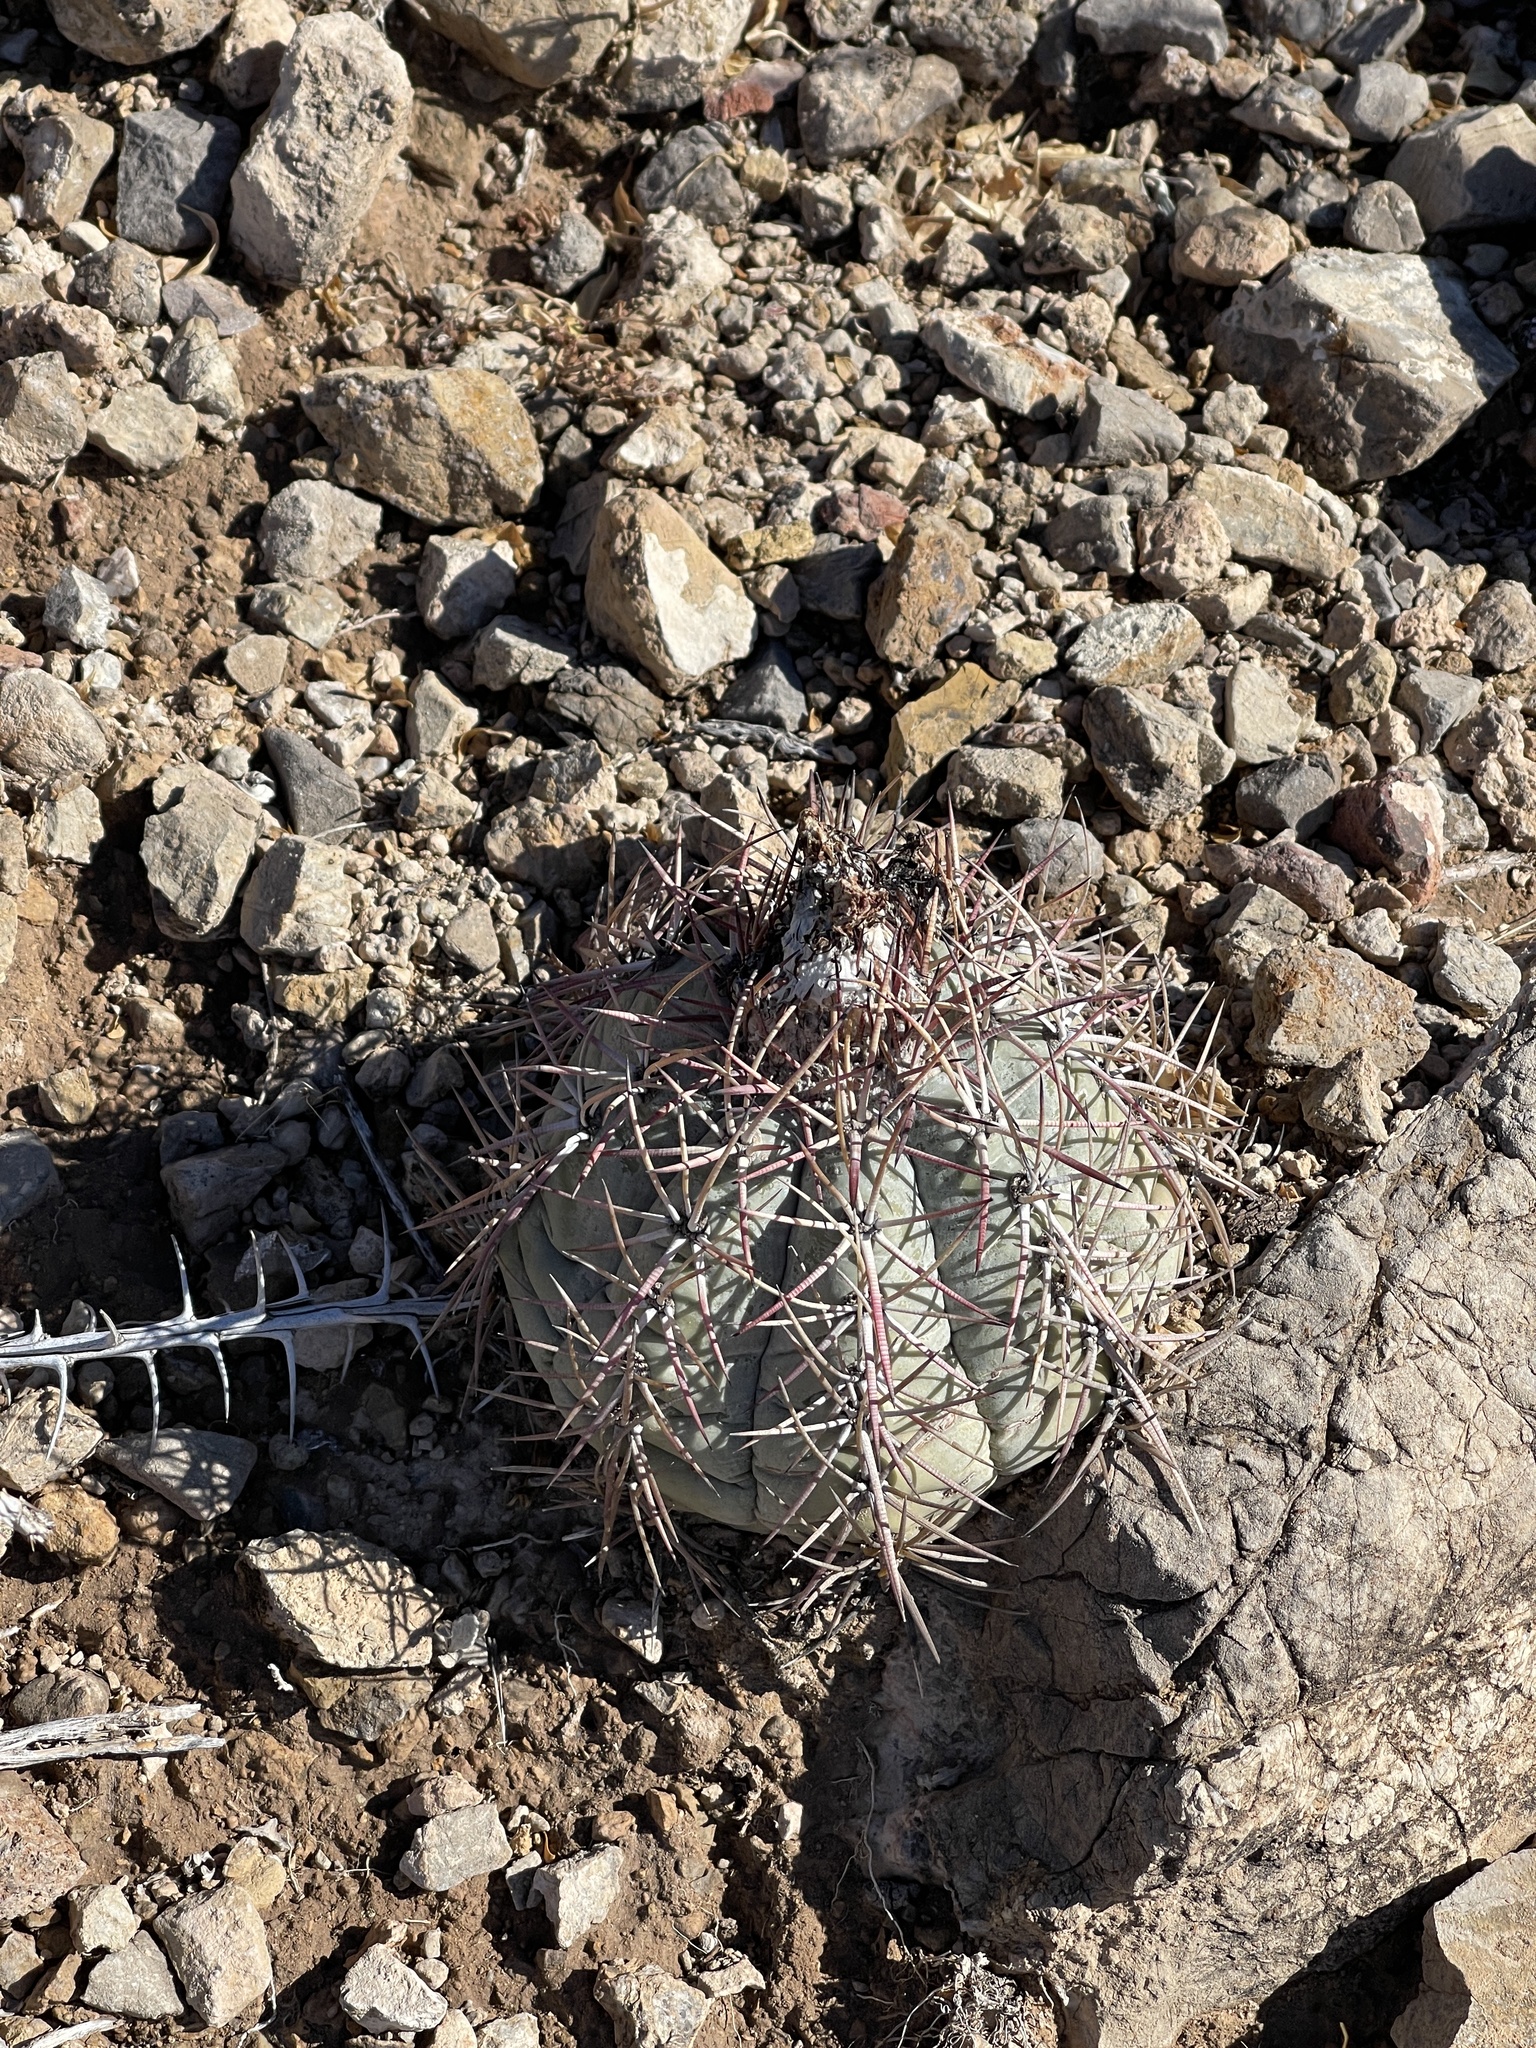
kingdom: Plantae
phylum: Tracheophyta
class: Magnoliopsida
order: Caryophyllales
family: Cactaceae
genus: Echinocactus
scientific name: Echinocactus horizonthalonius
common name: Devilshead
